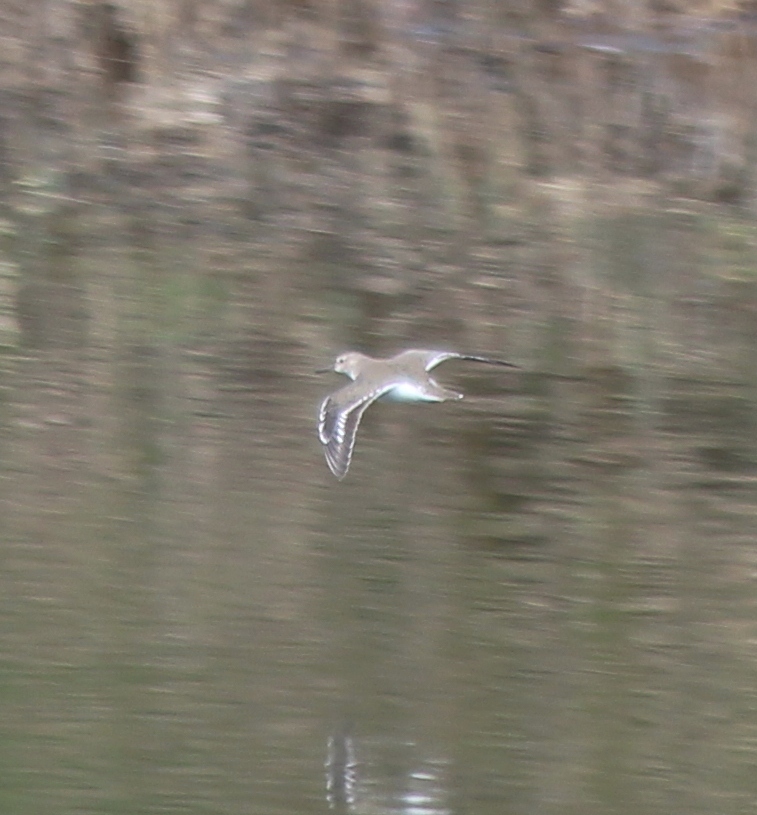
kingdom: Animalia
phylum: Chordata
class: Aves
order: Charadriiformes
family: Scolopacidae
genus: Actitis
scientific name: Actitis hypoleucos
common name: Common sandpiper
